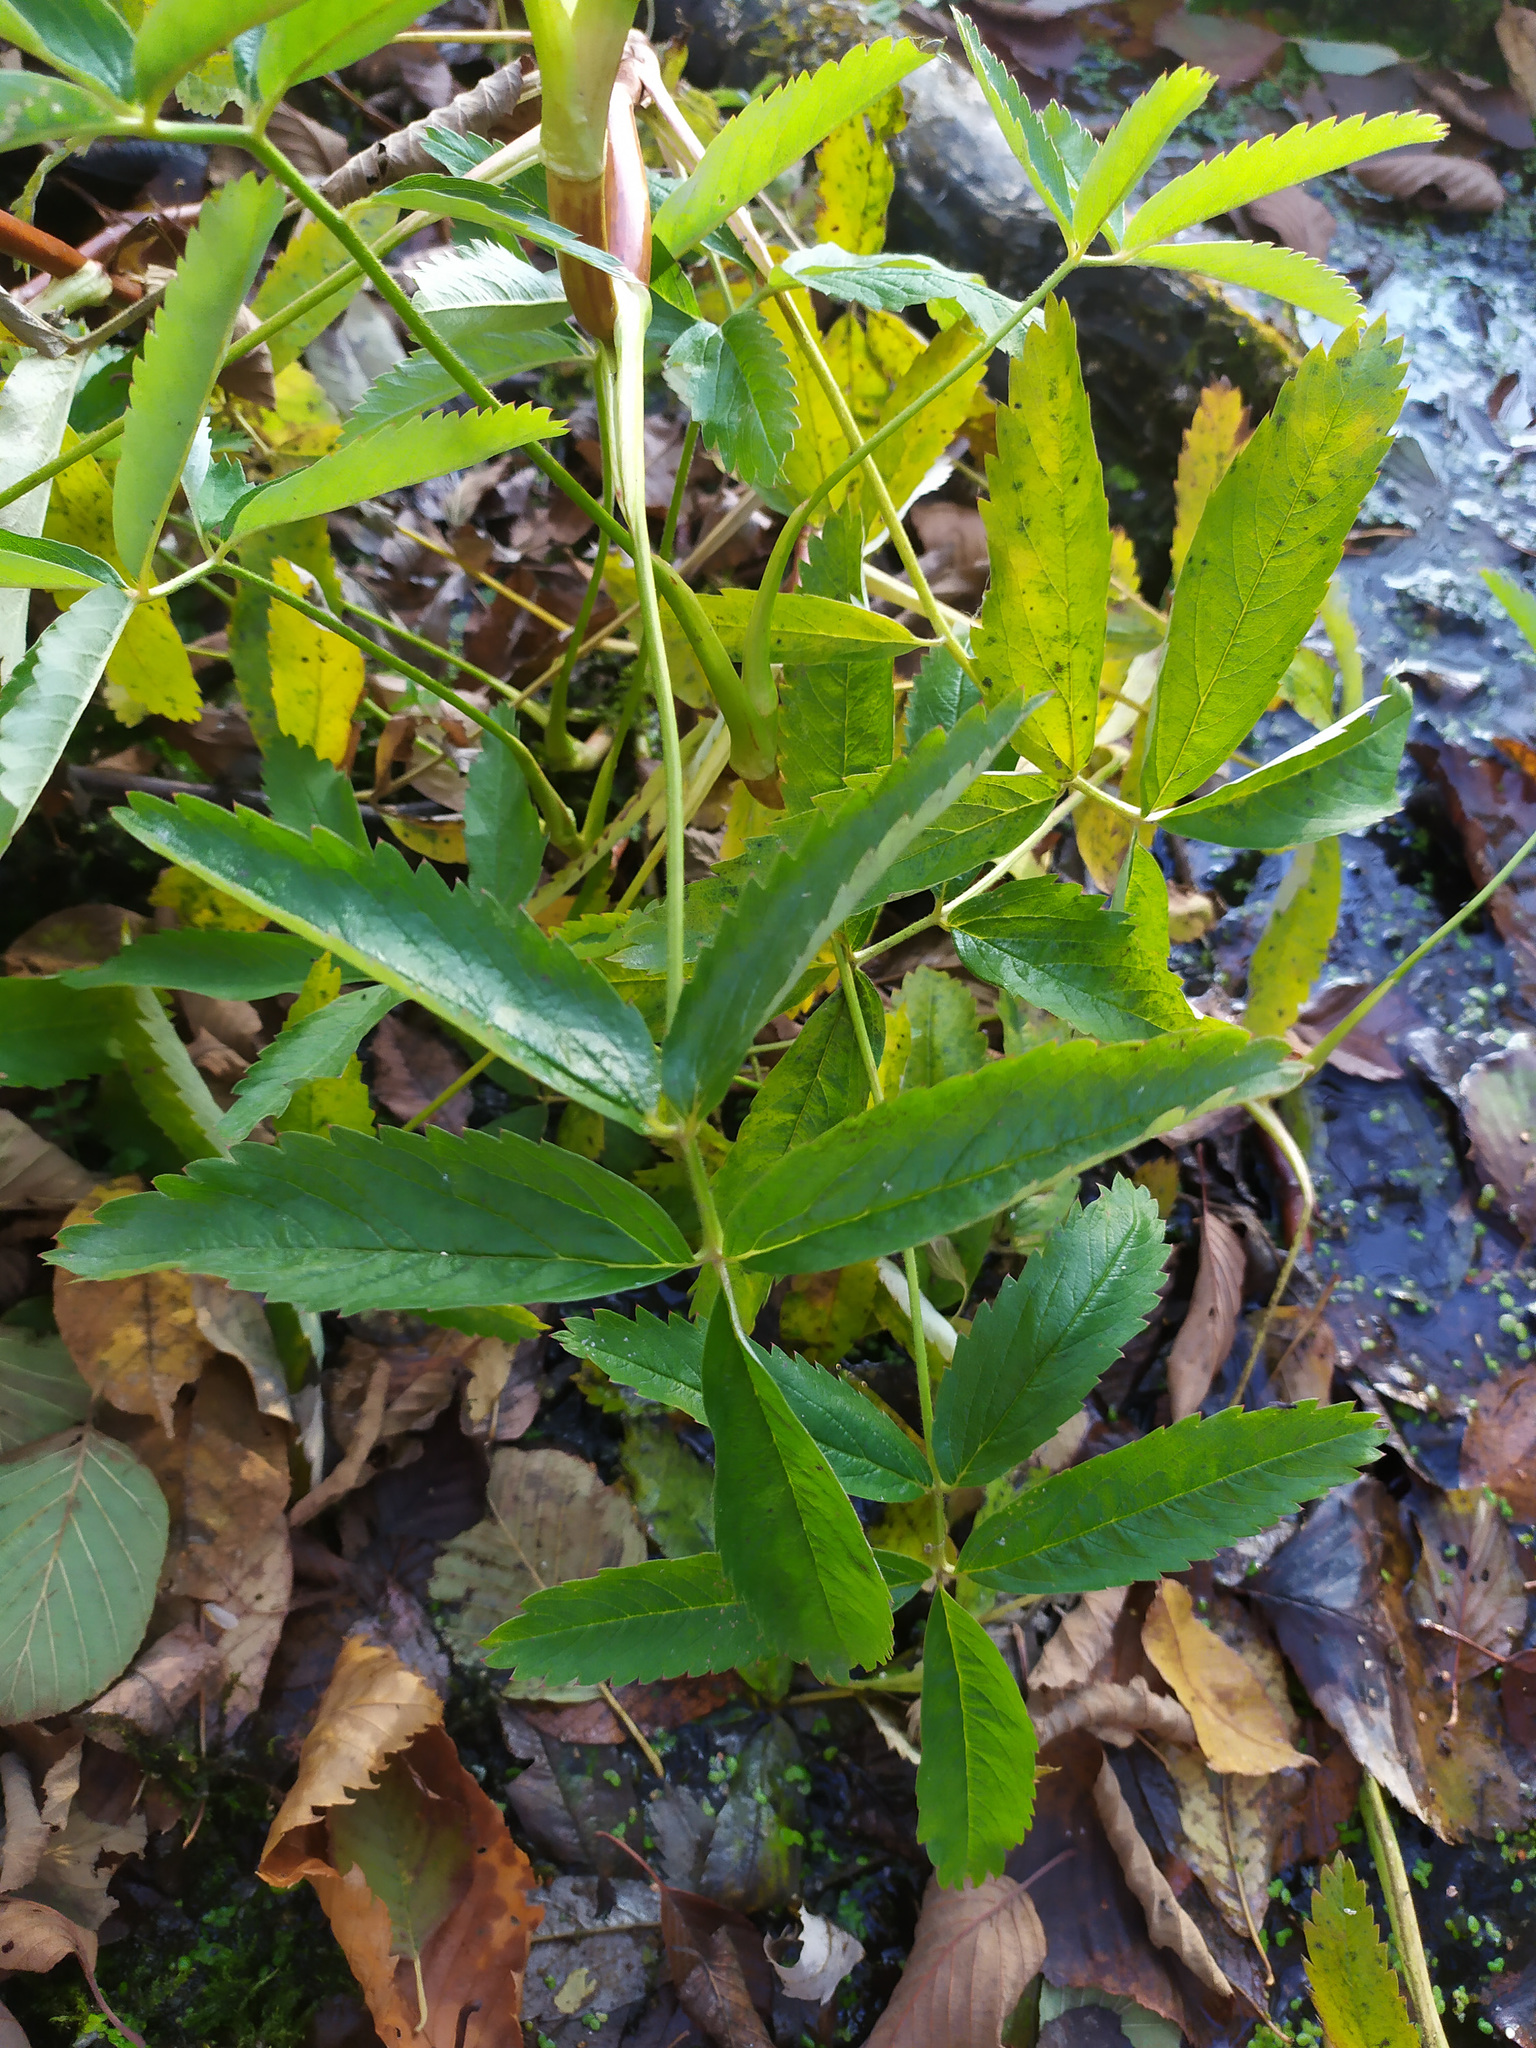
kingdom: Plantae
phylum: Tracheophyta
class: Magnoliopsida
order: Rosales
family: Rosaceae
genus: Comarum
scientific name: Comarum palustre
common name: Marsh cinquefoil
